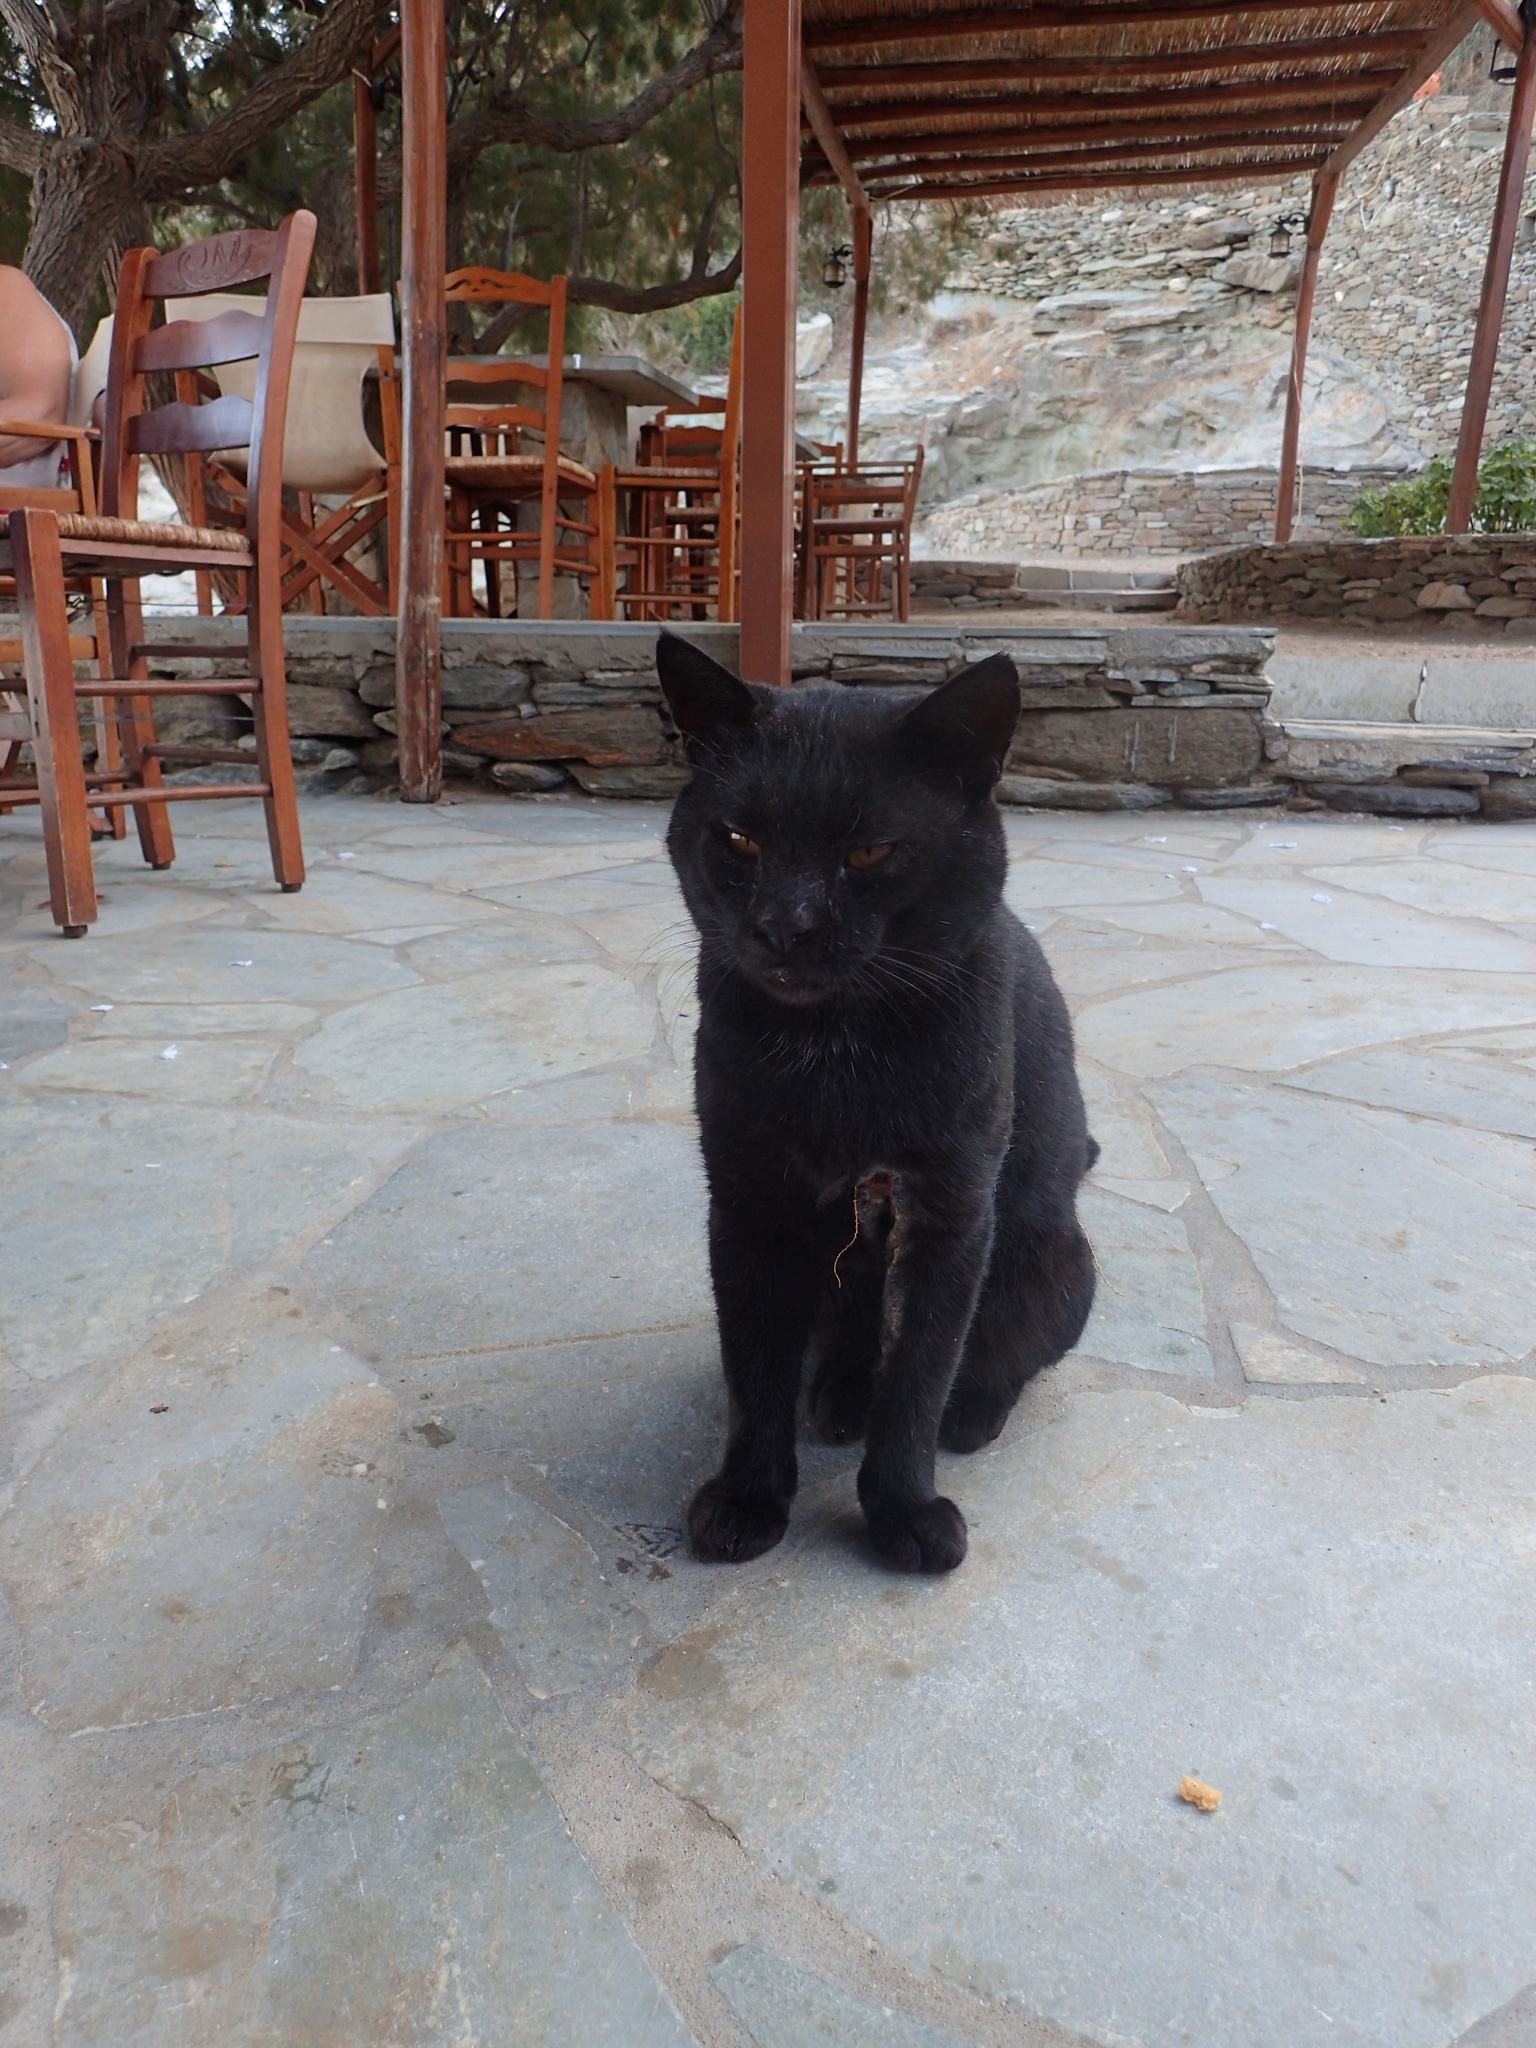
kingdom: Animalia
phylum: Chordata
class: Mammalia
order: Carnivora
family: Felidae
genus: Felis
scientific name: Felis catus
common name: Domestic cat
